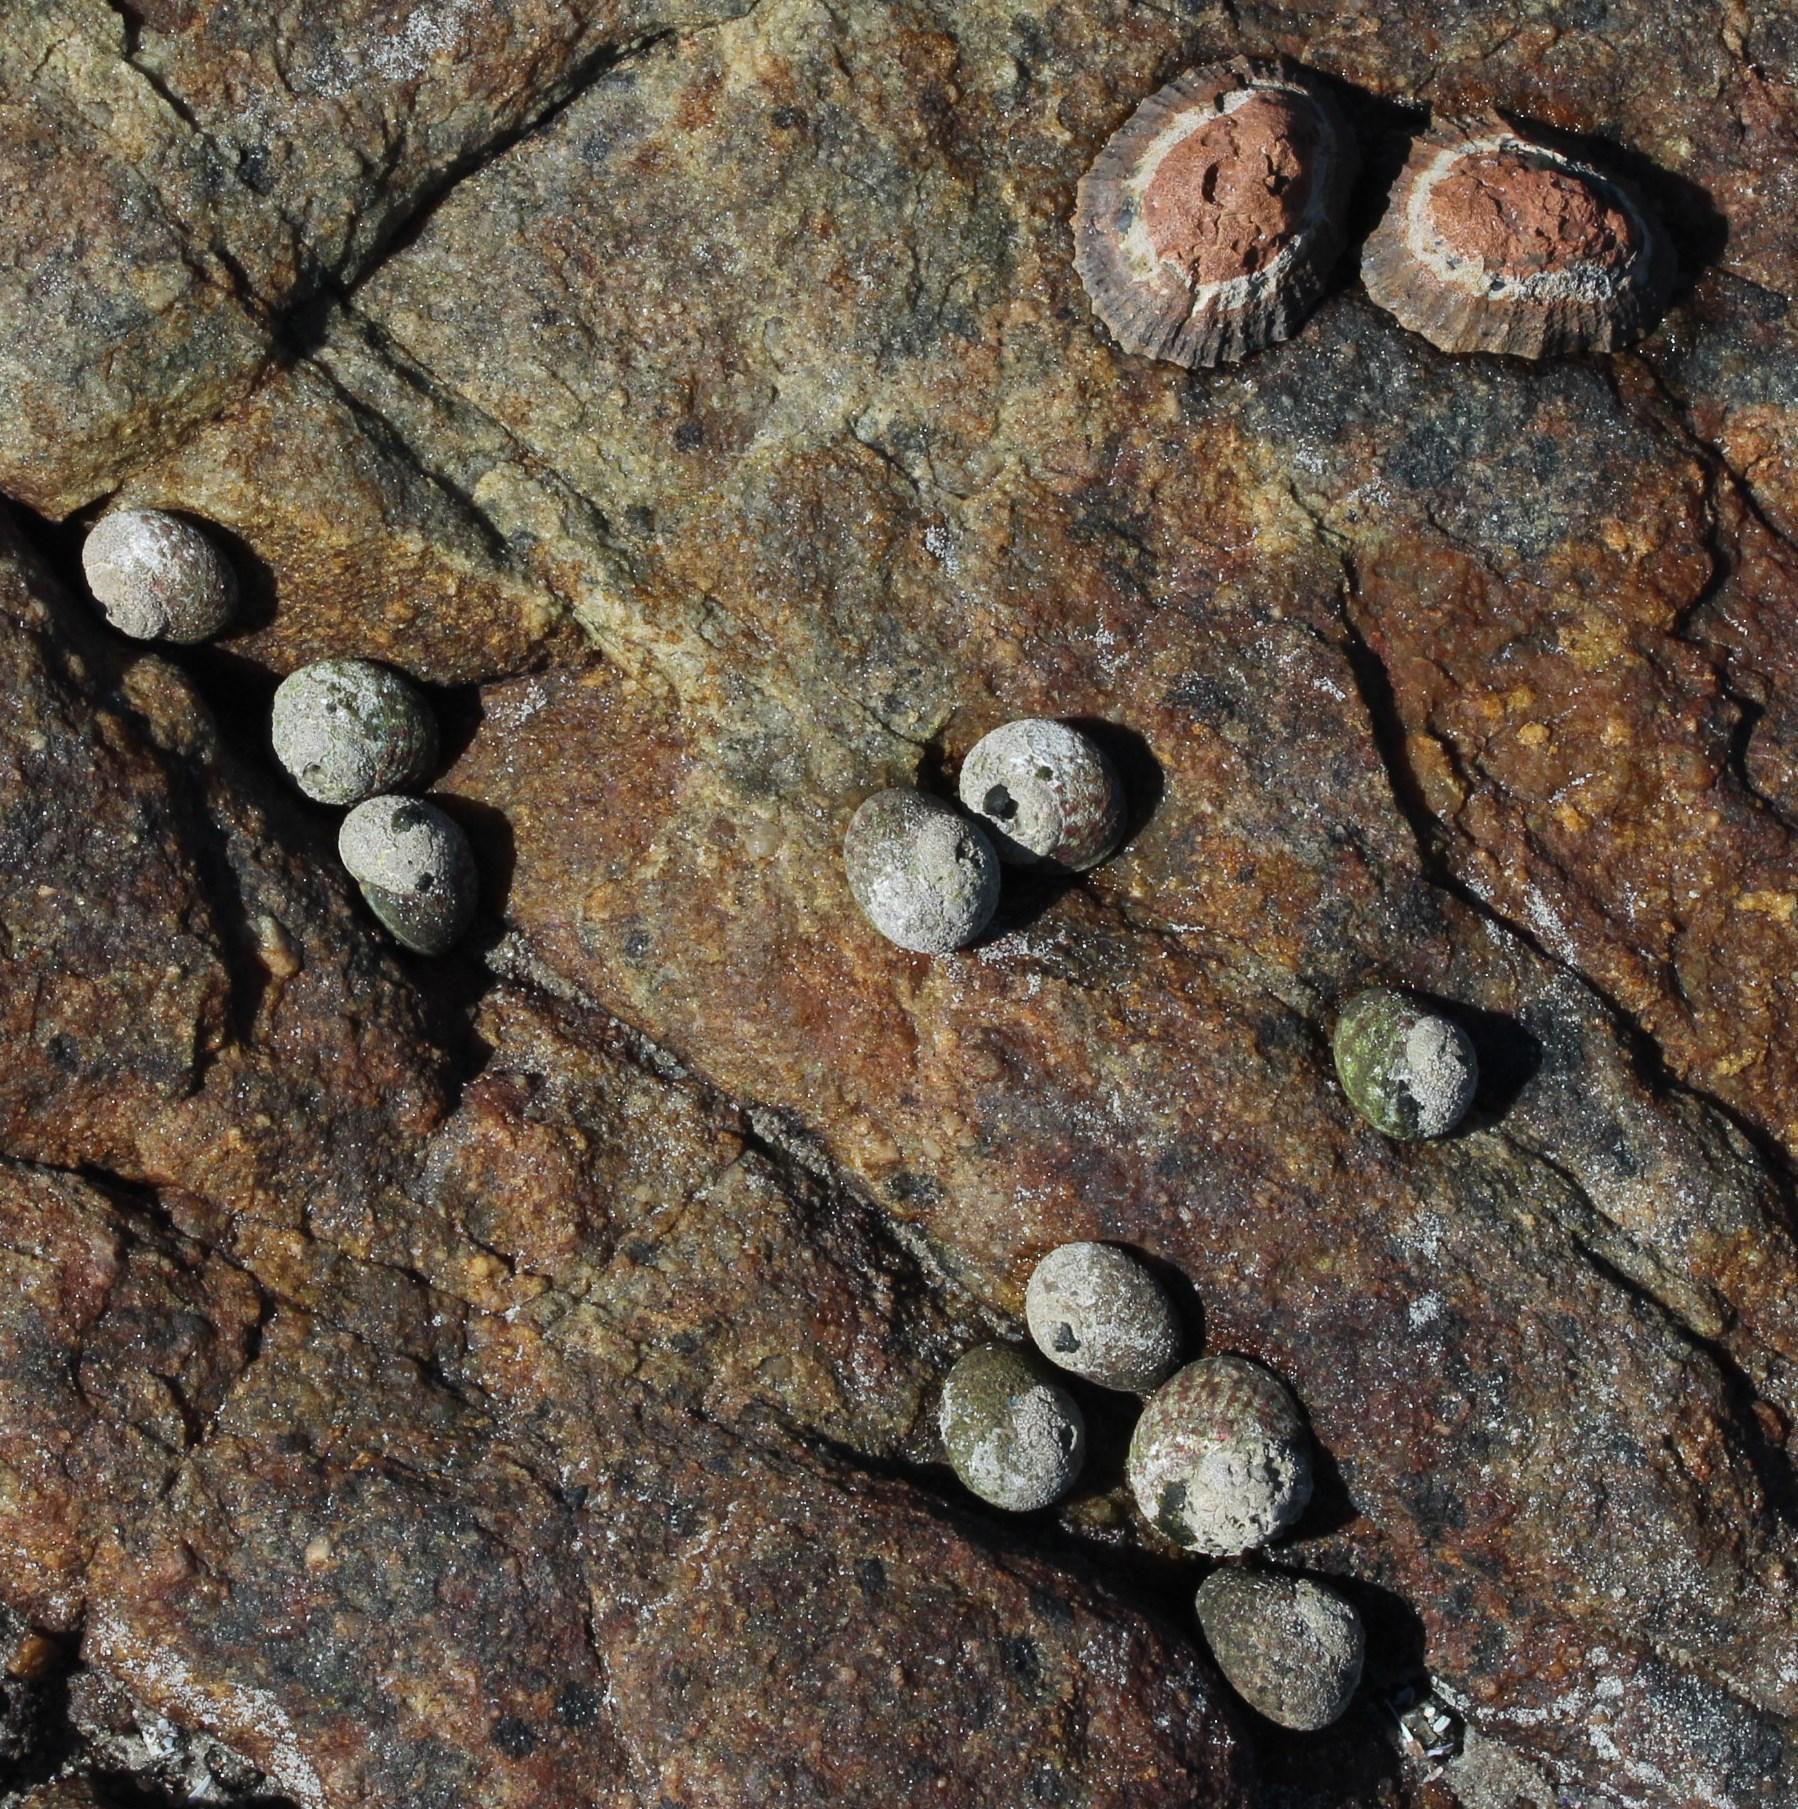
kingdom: Animalia
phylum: Mollusca
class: Gastropoda
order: Trochida
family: Trochidae
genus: Oxystele
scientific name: Oxystele antoni
